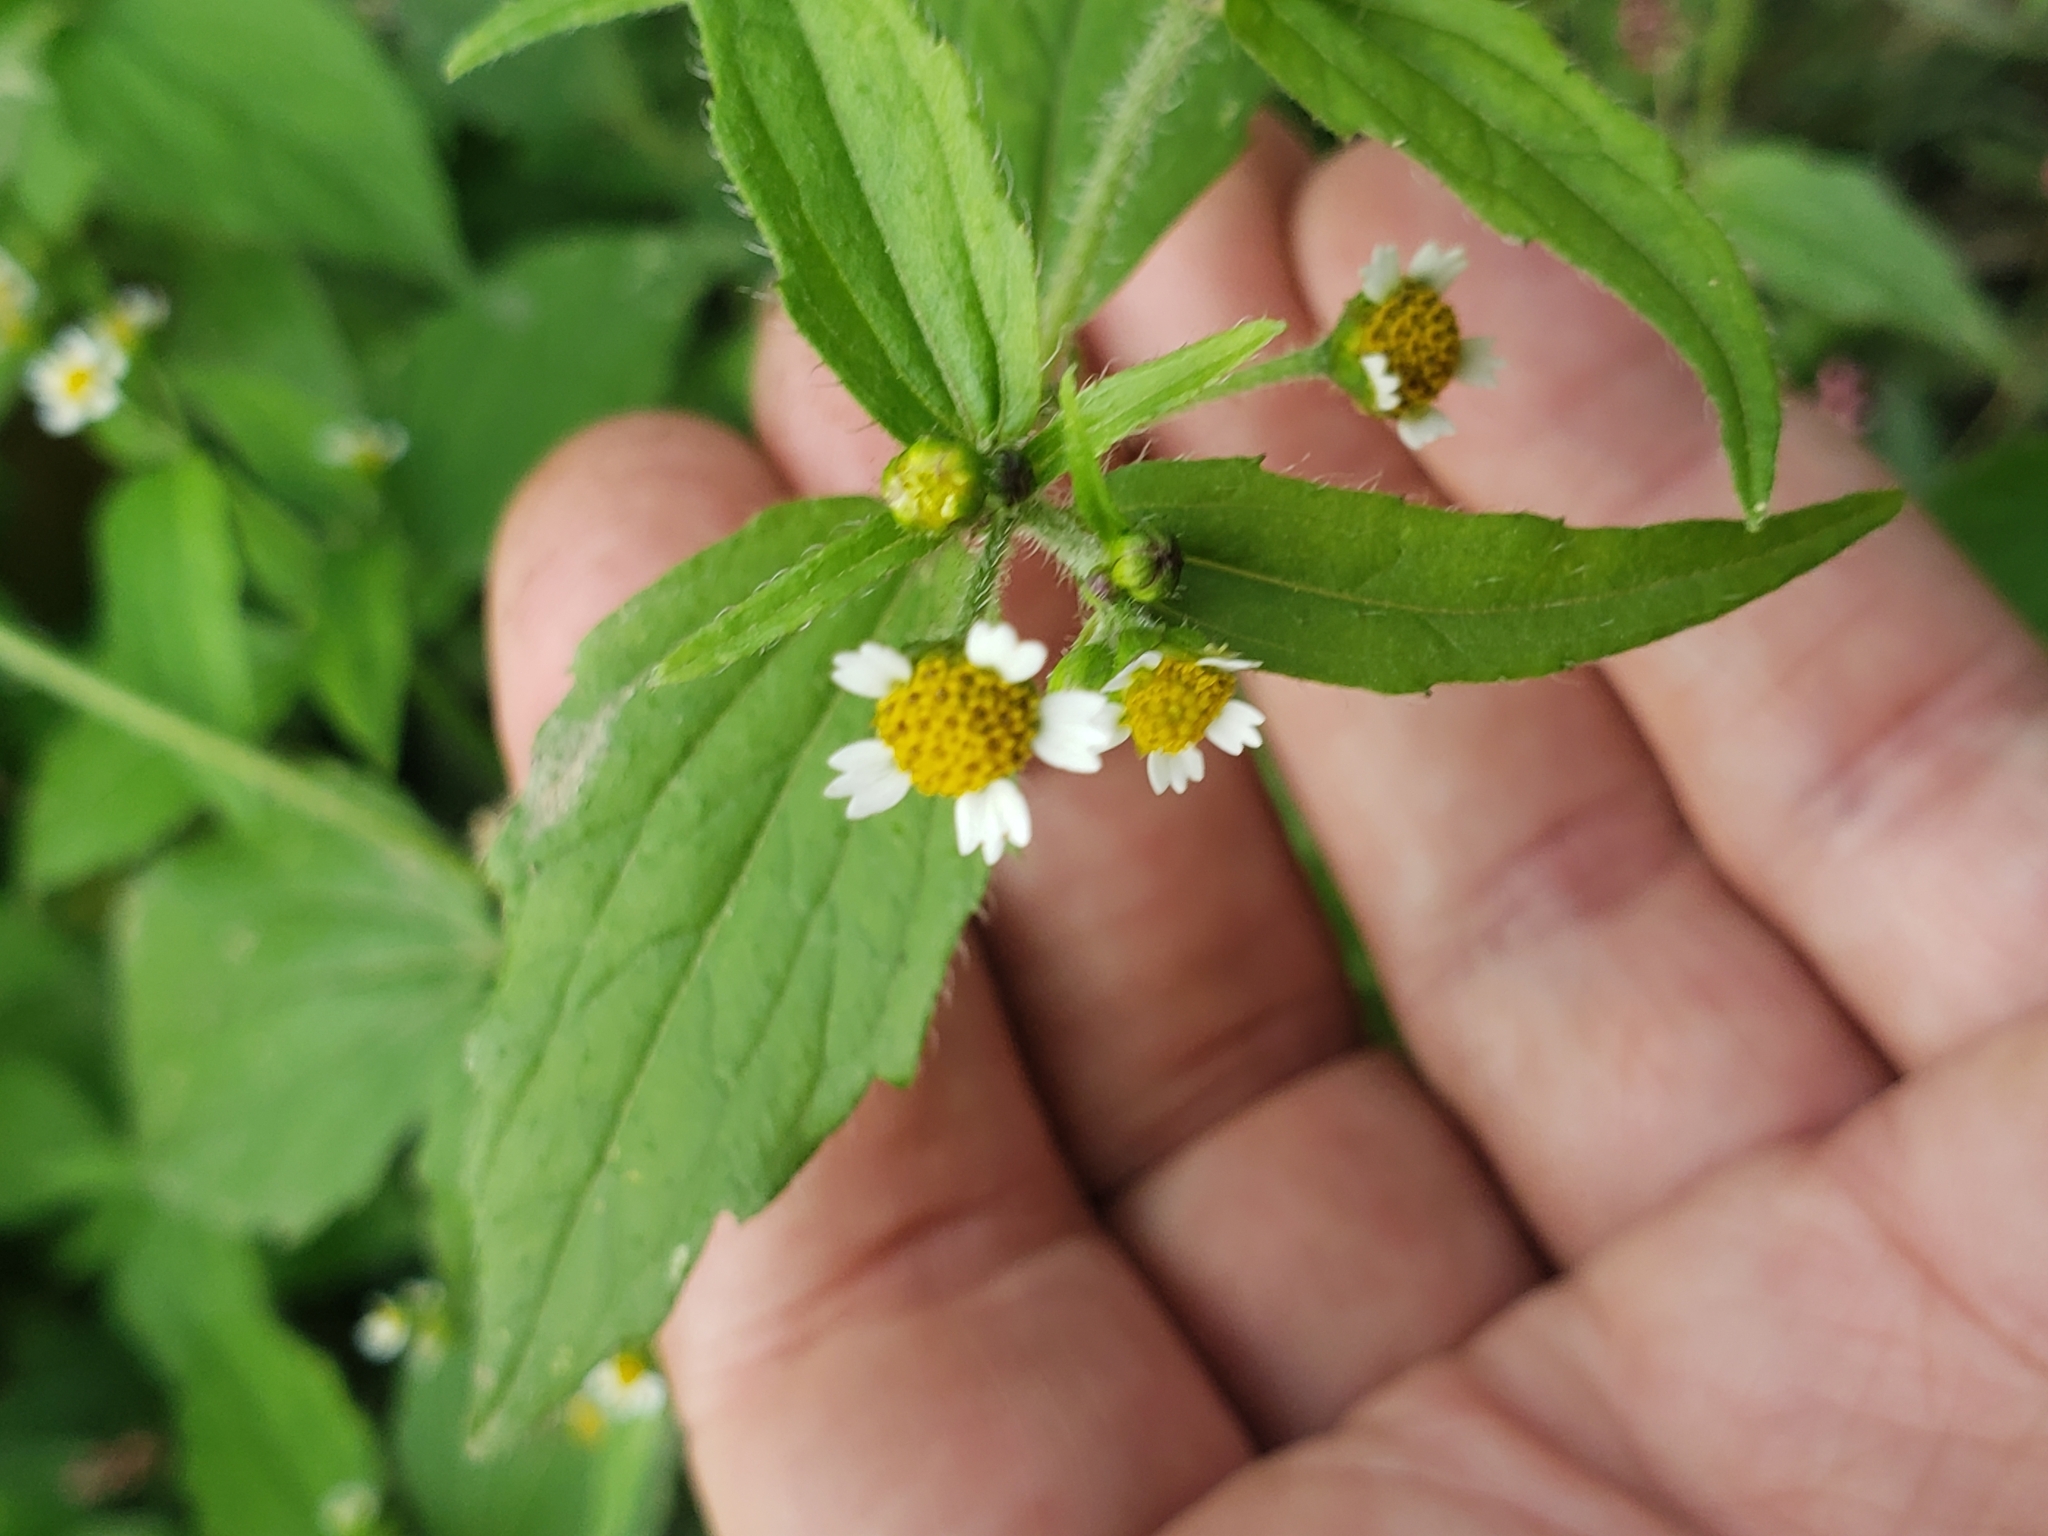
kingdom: Plantae
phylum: Tracheophyta
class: Magnoliopsida
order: Asterales
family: Asteraceae
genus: Galinsoga
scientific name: Galinsoga quadriradiata
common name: Shaggy soldier
